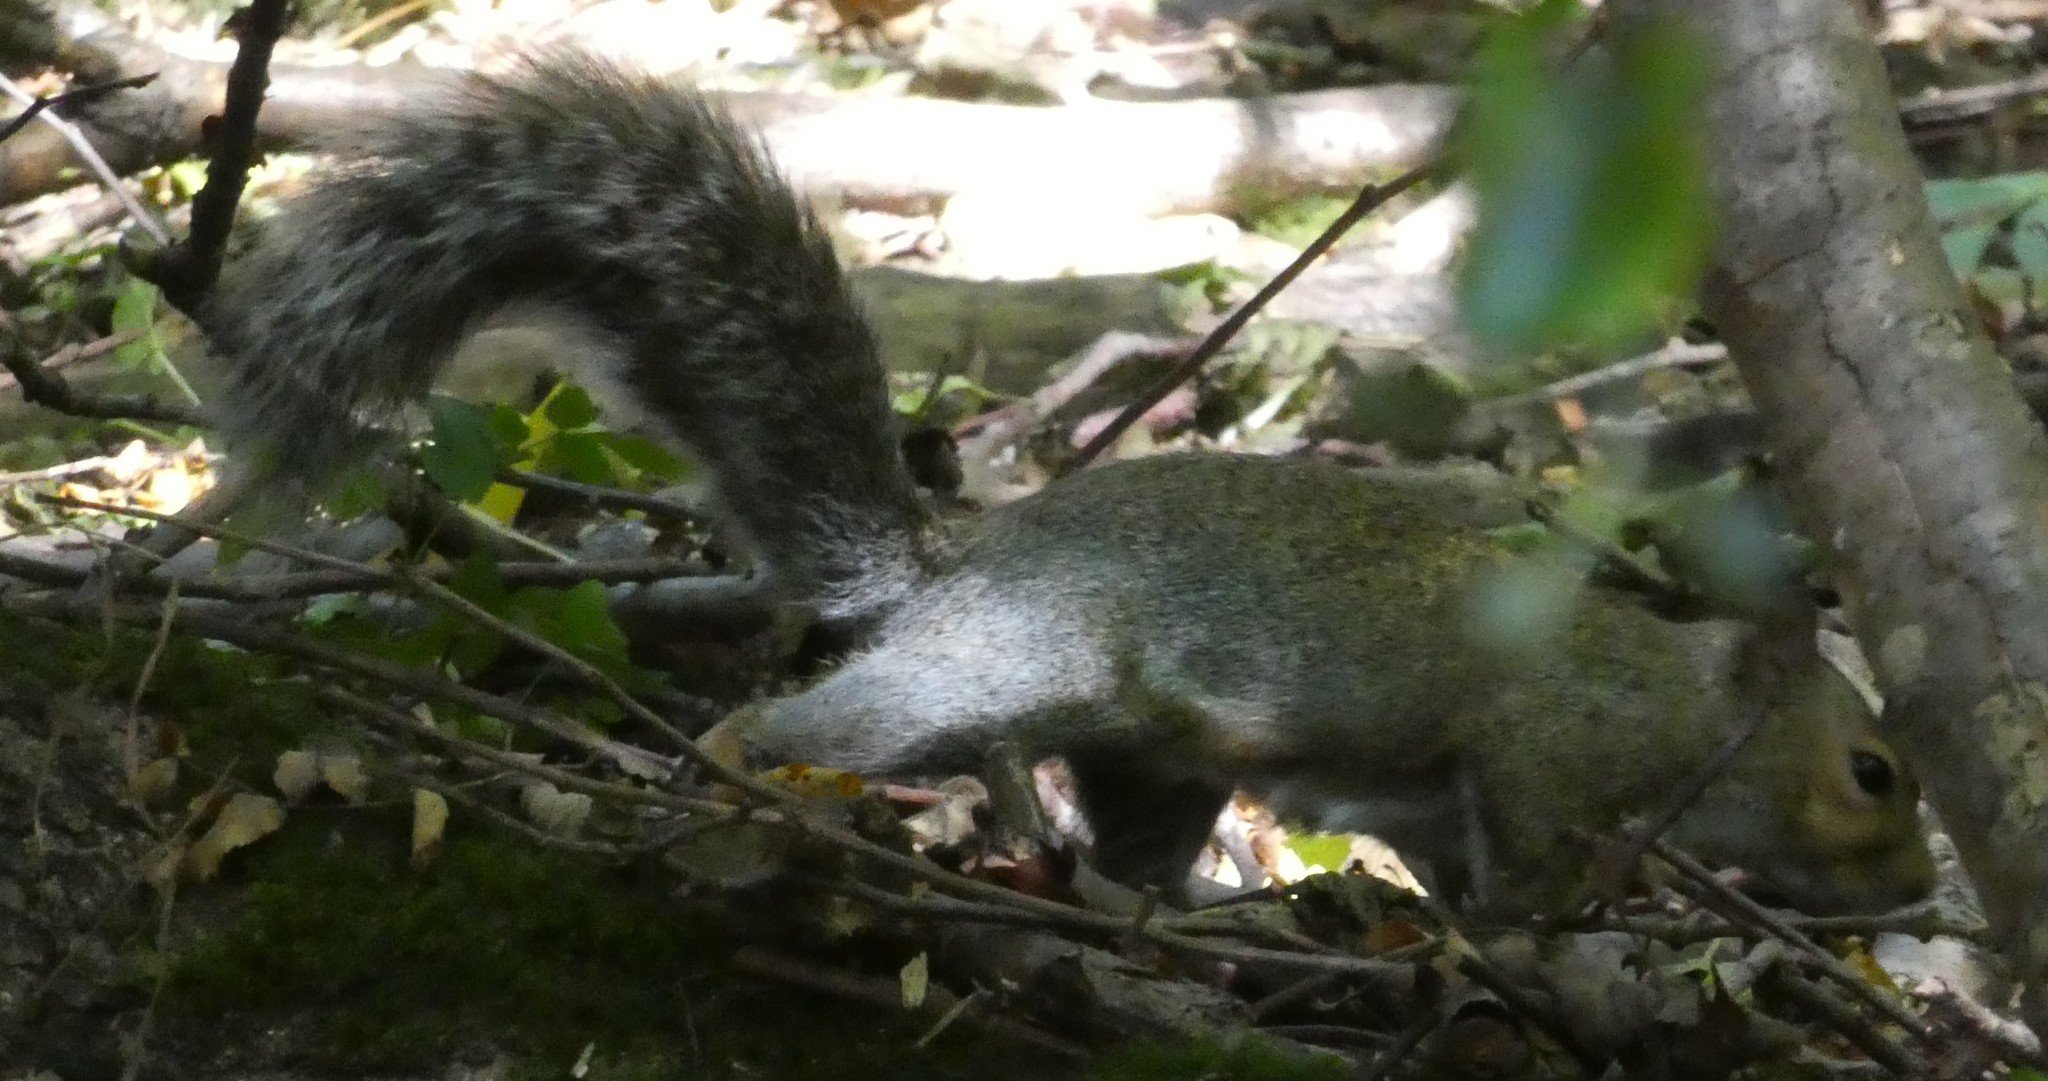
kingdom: Animalia
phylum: Chordata
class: Mammalia
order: Rodentia
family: Sciuridae
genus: Sciurus
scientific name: Sciurus carolinensis
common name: Eastern gray squirrel
